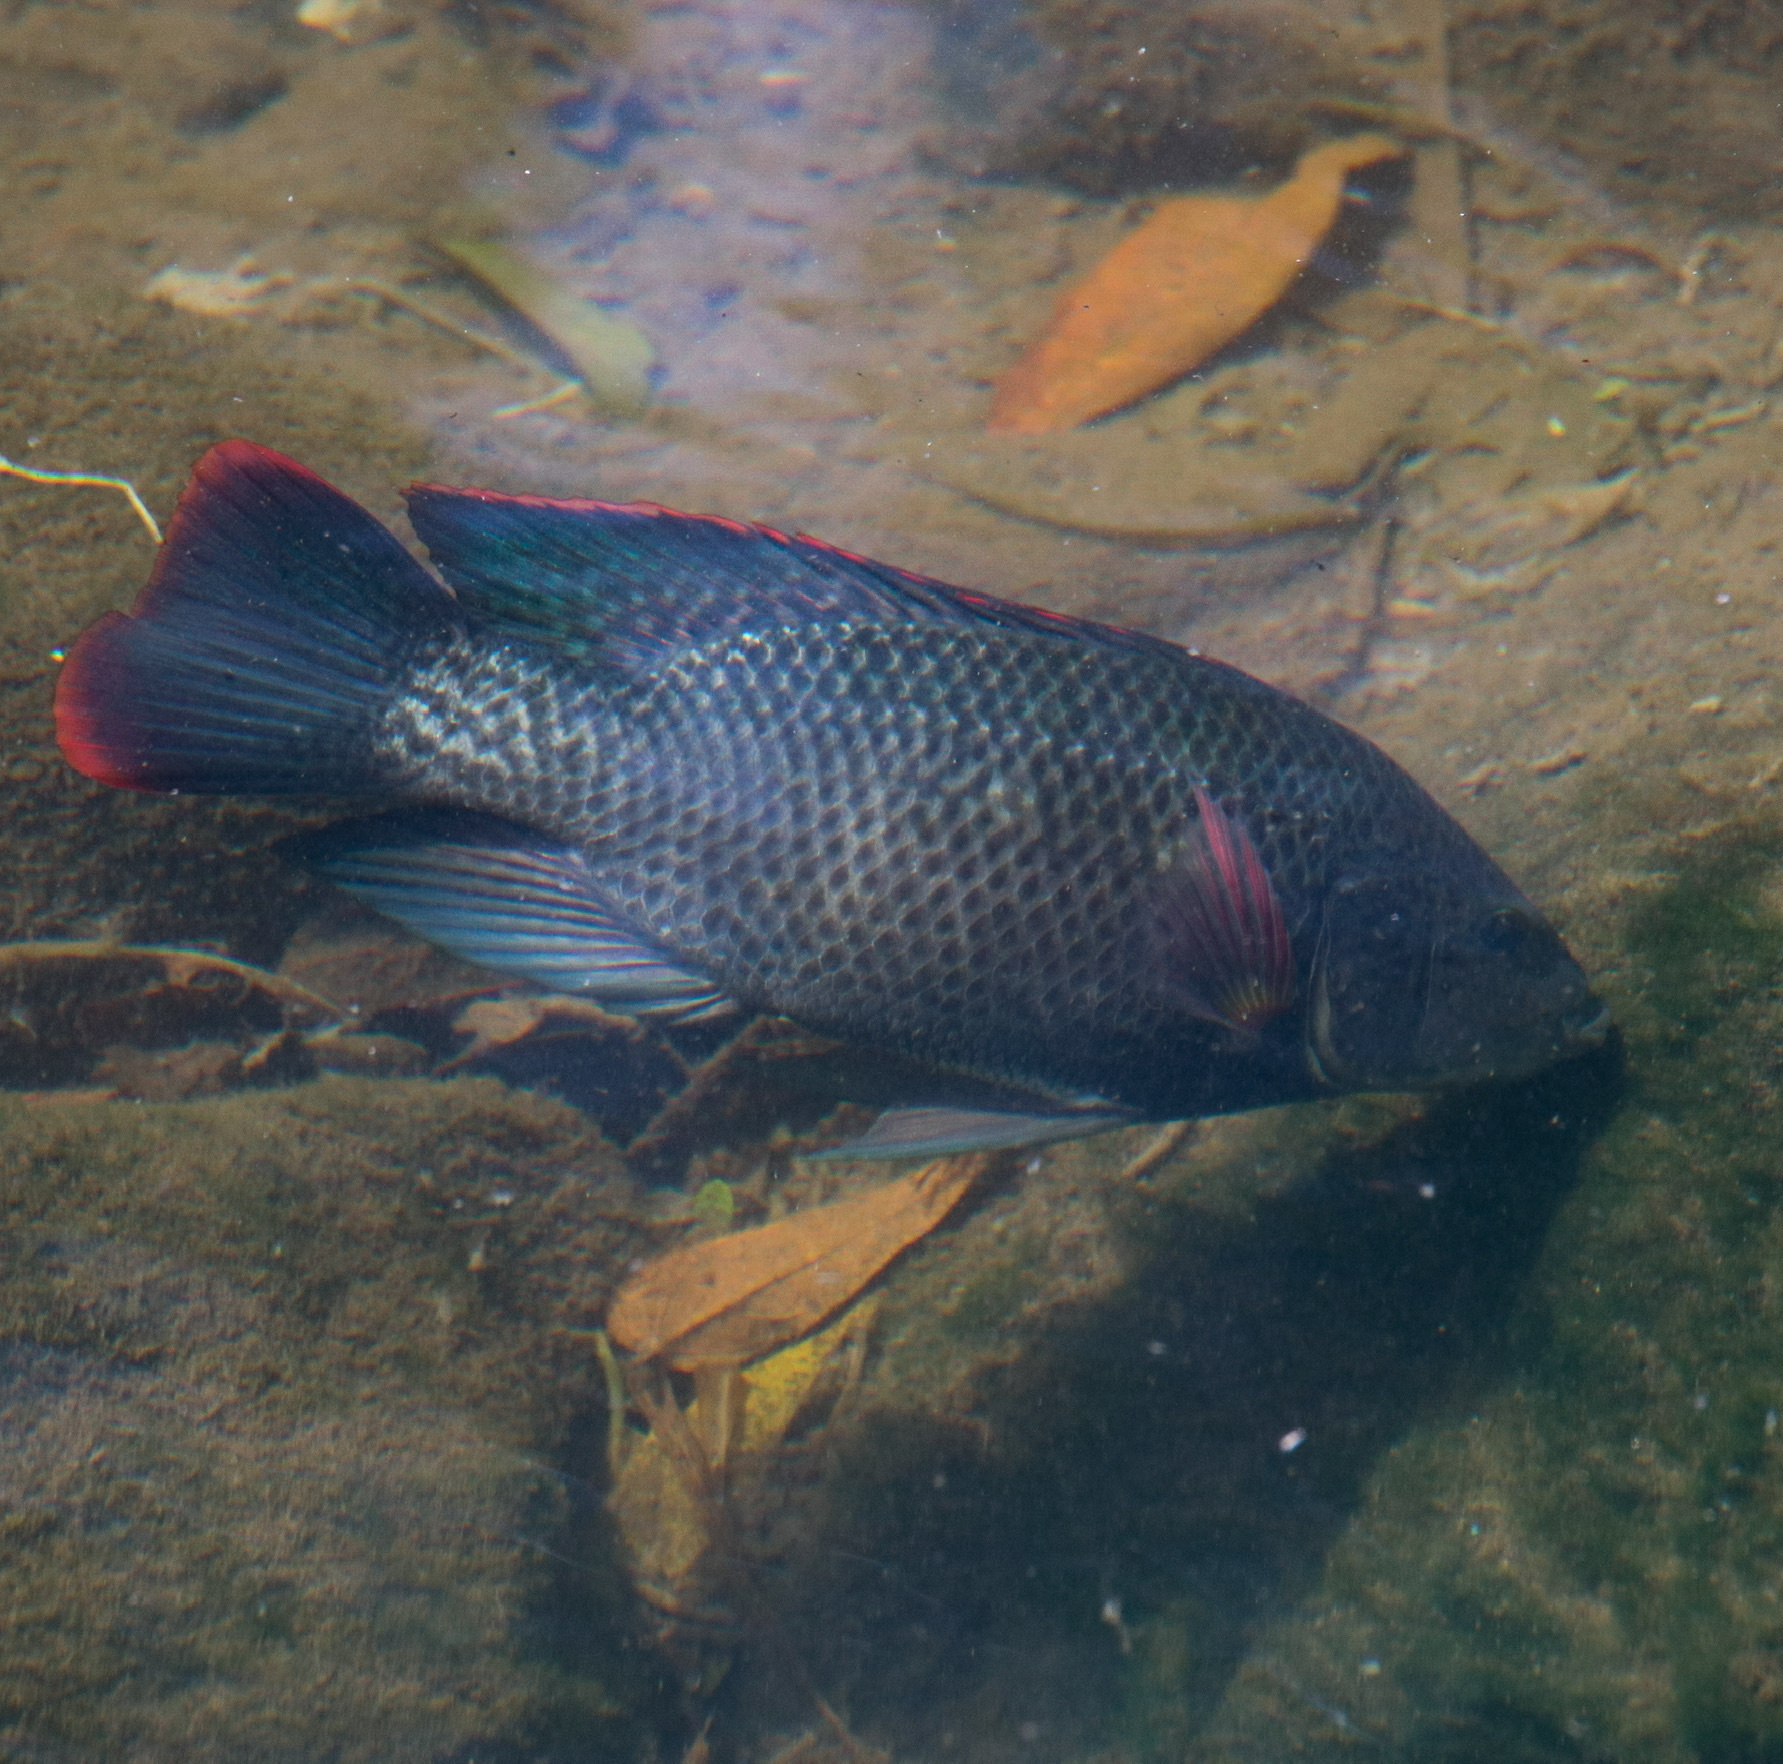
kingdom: Animalia
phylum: Chordata
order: Perciformes
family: Cichlidae
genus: Oreochromis
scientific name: Oreochromis mossambicus
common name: Mozambique tilapia
